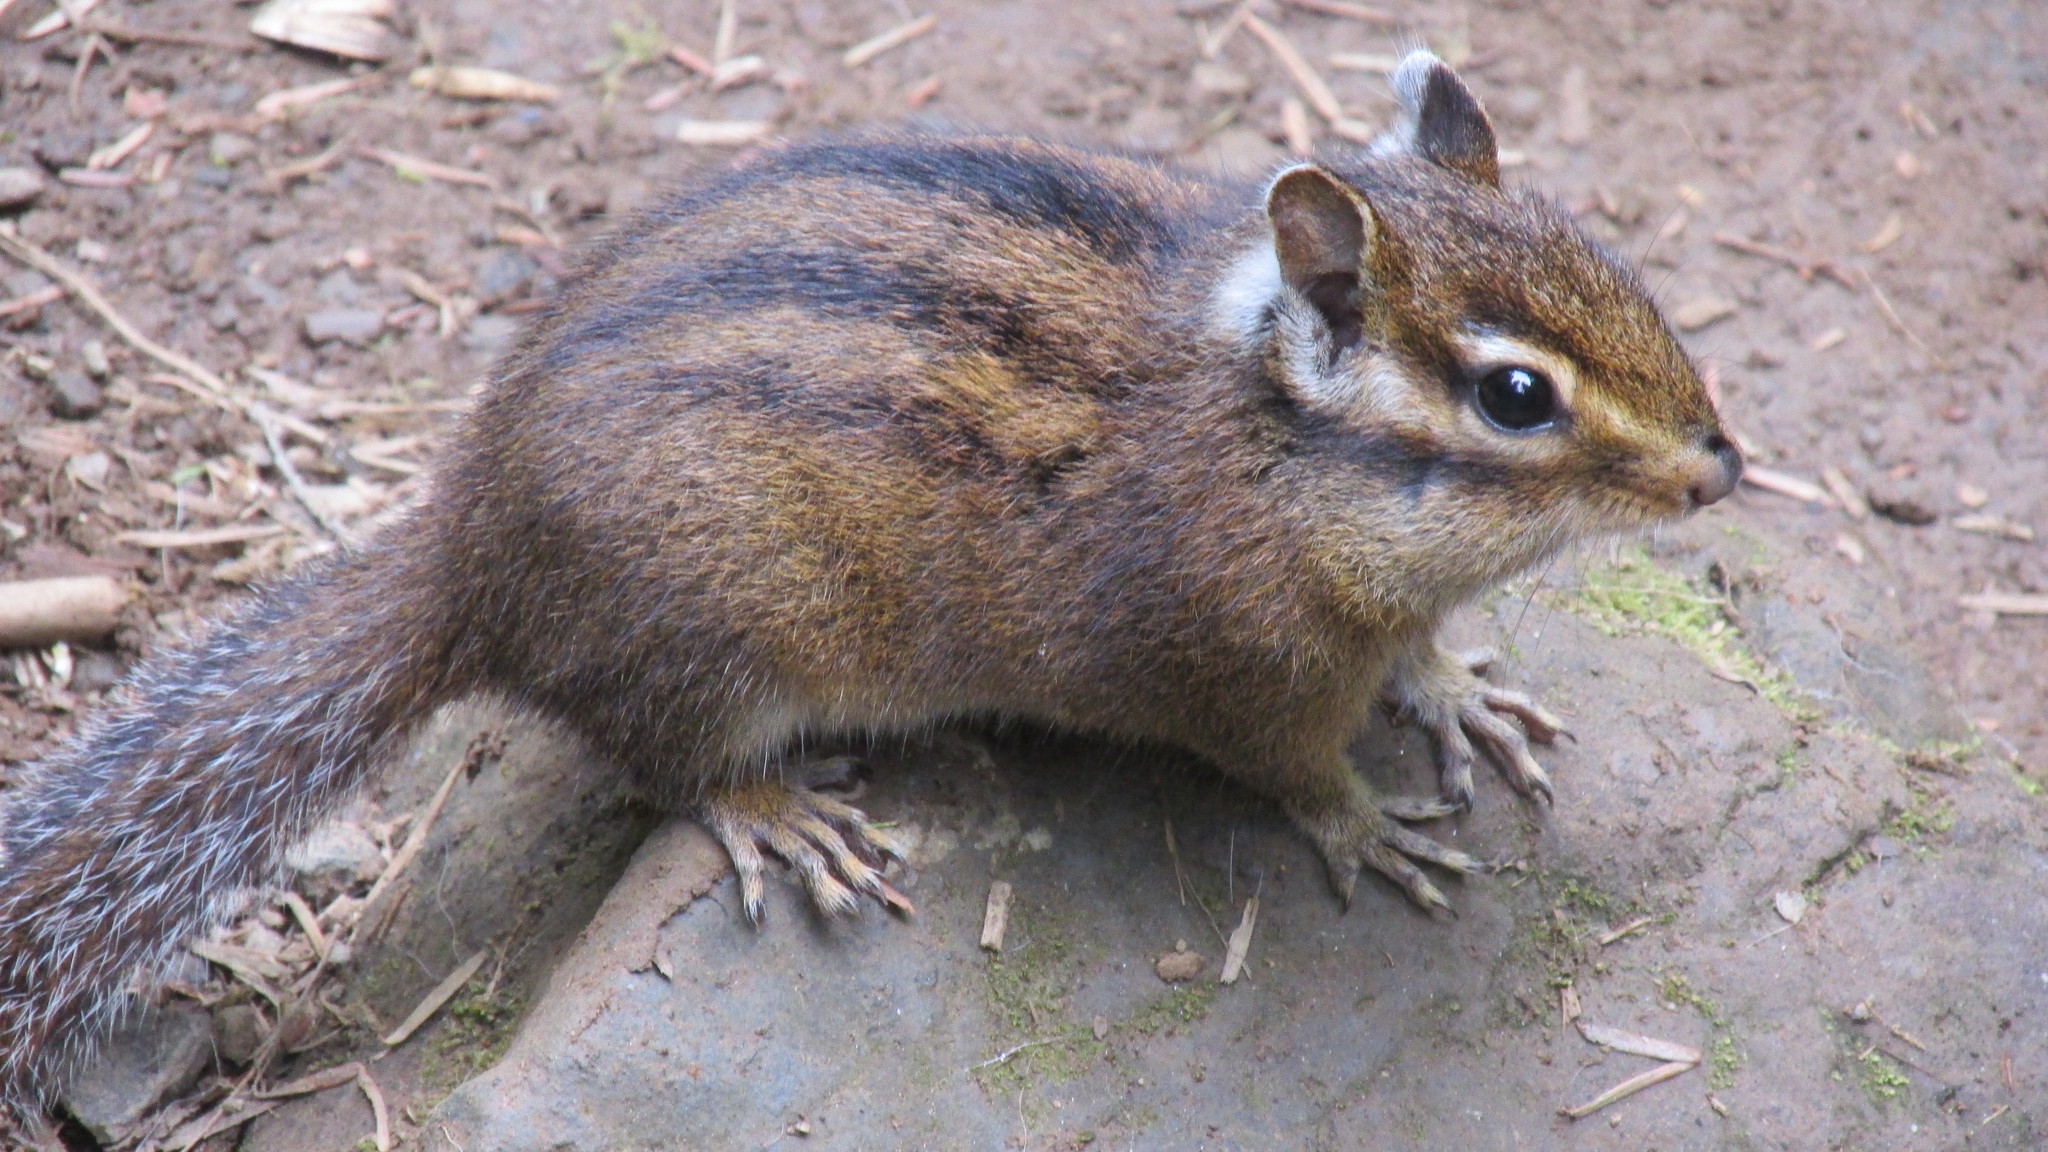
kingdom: Animalia
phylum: Chordata
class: Mammalia
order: Rodentia
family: Sciuridae
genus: Tamias
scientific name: Tamias townsendii
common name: Townsend's chipmunk
